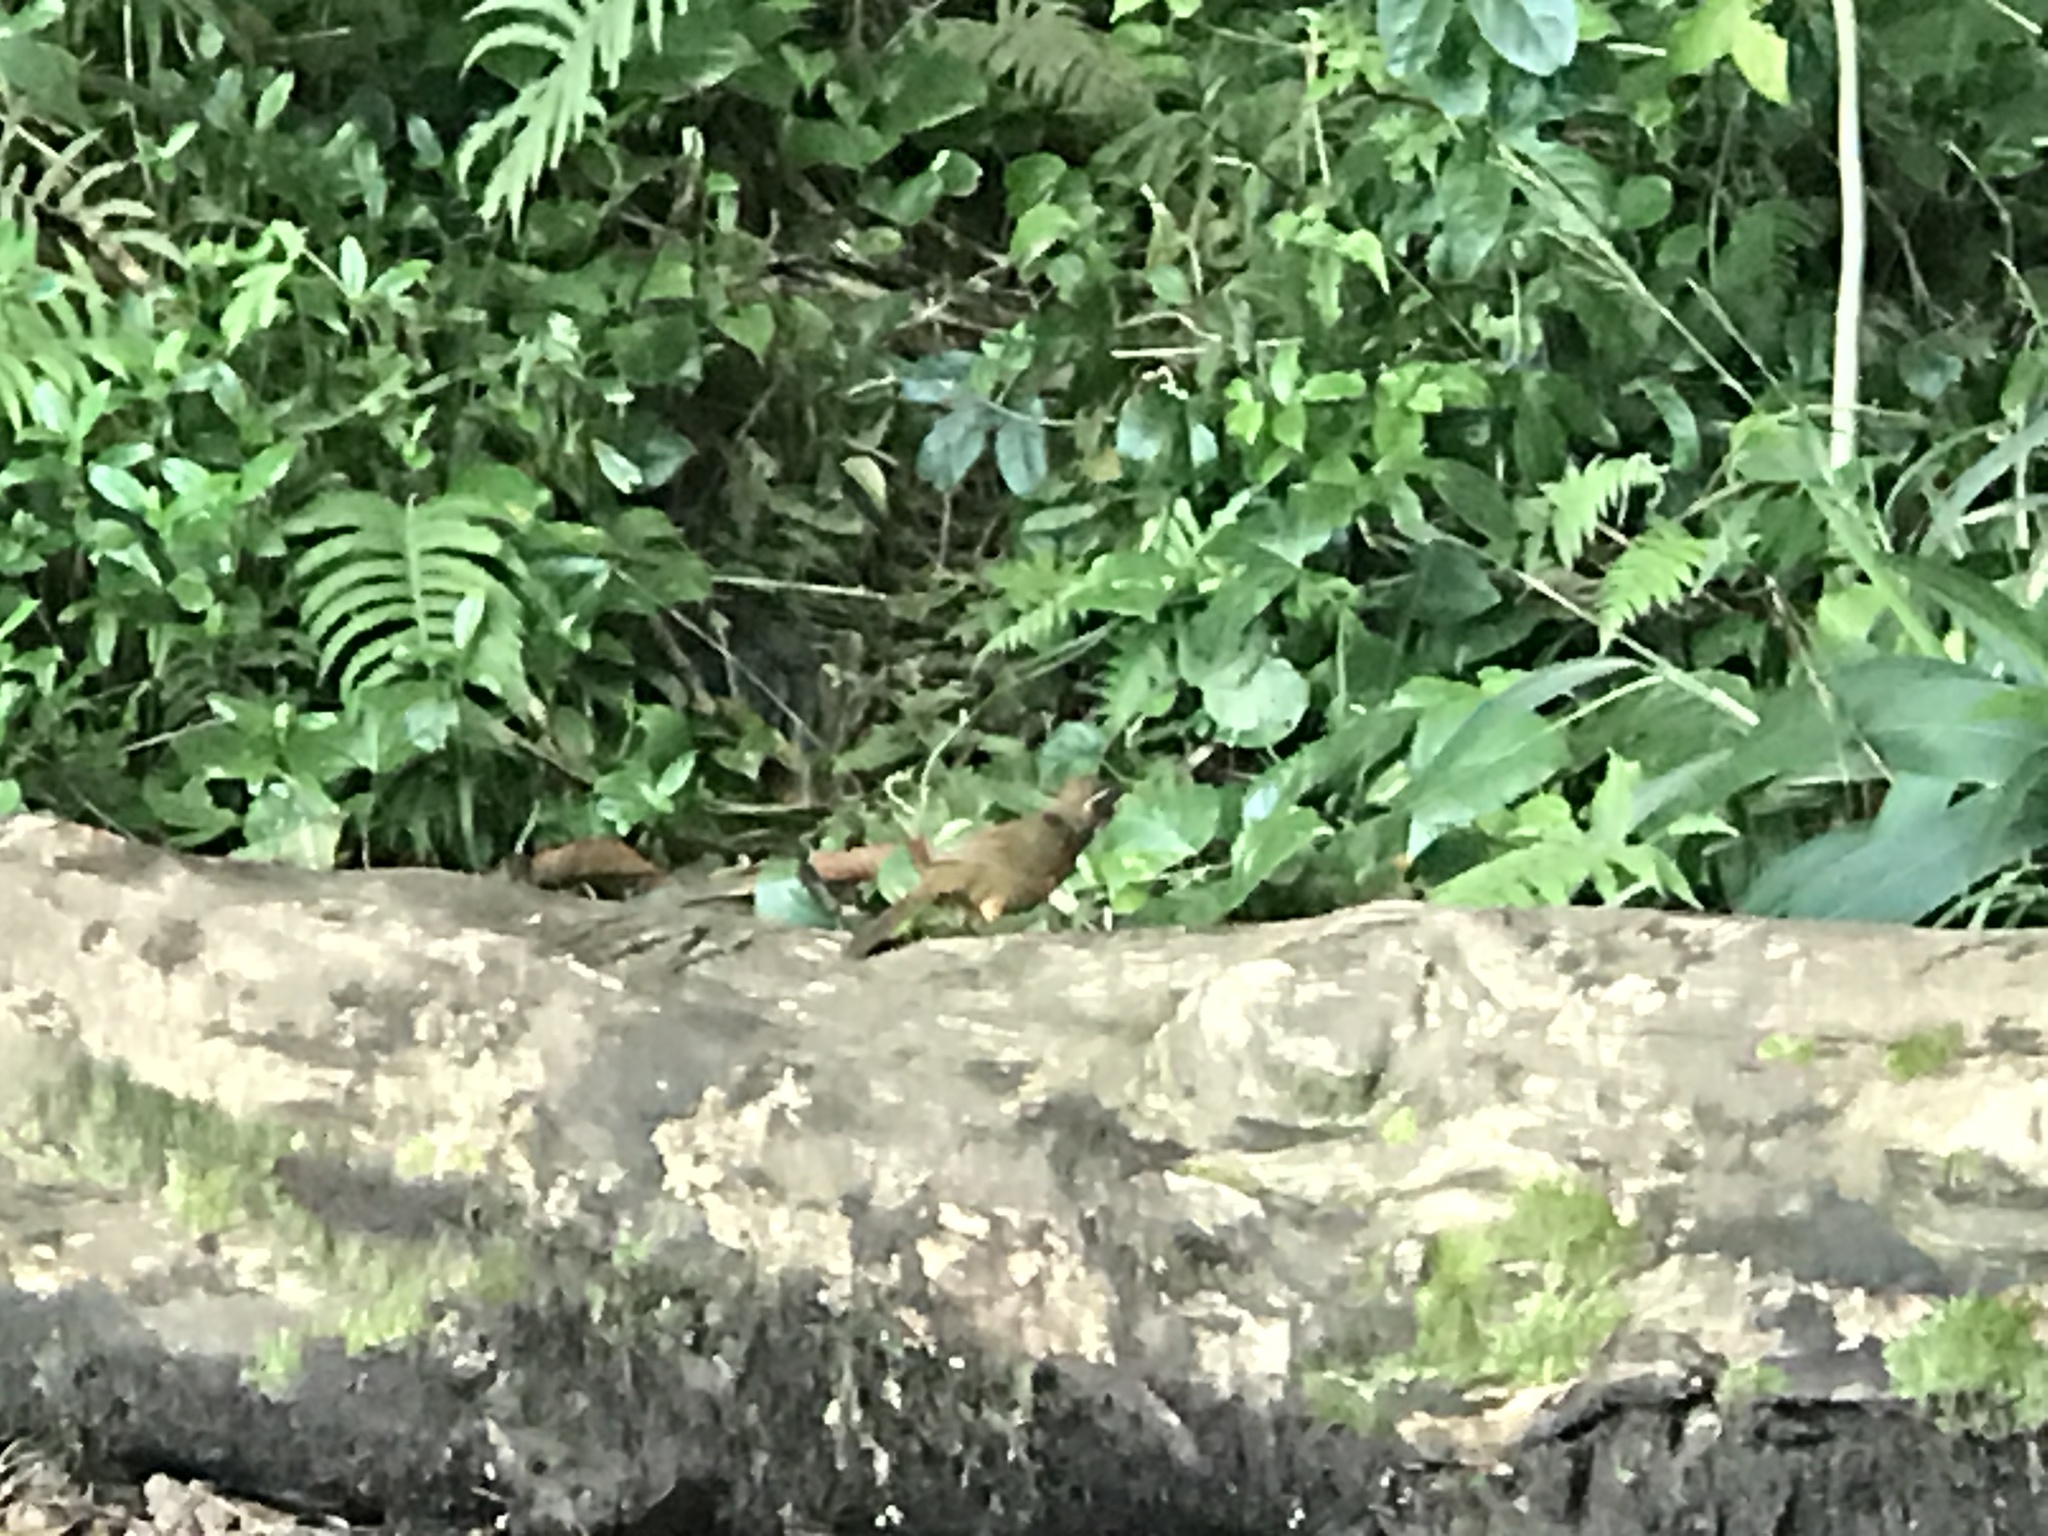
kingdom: Animalia
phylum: Chordata
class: Aves
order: Passeriformes
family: Leiothrichidae
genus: Garrulax
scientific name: Garrulax canorus
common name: Chinese hwamei
